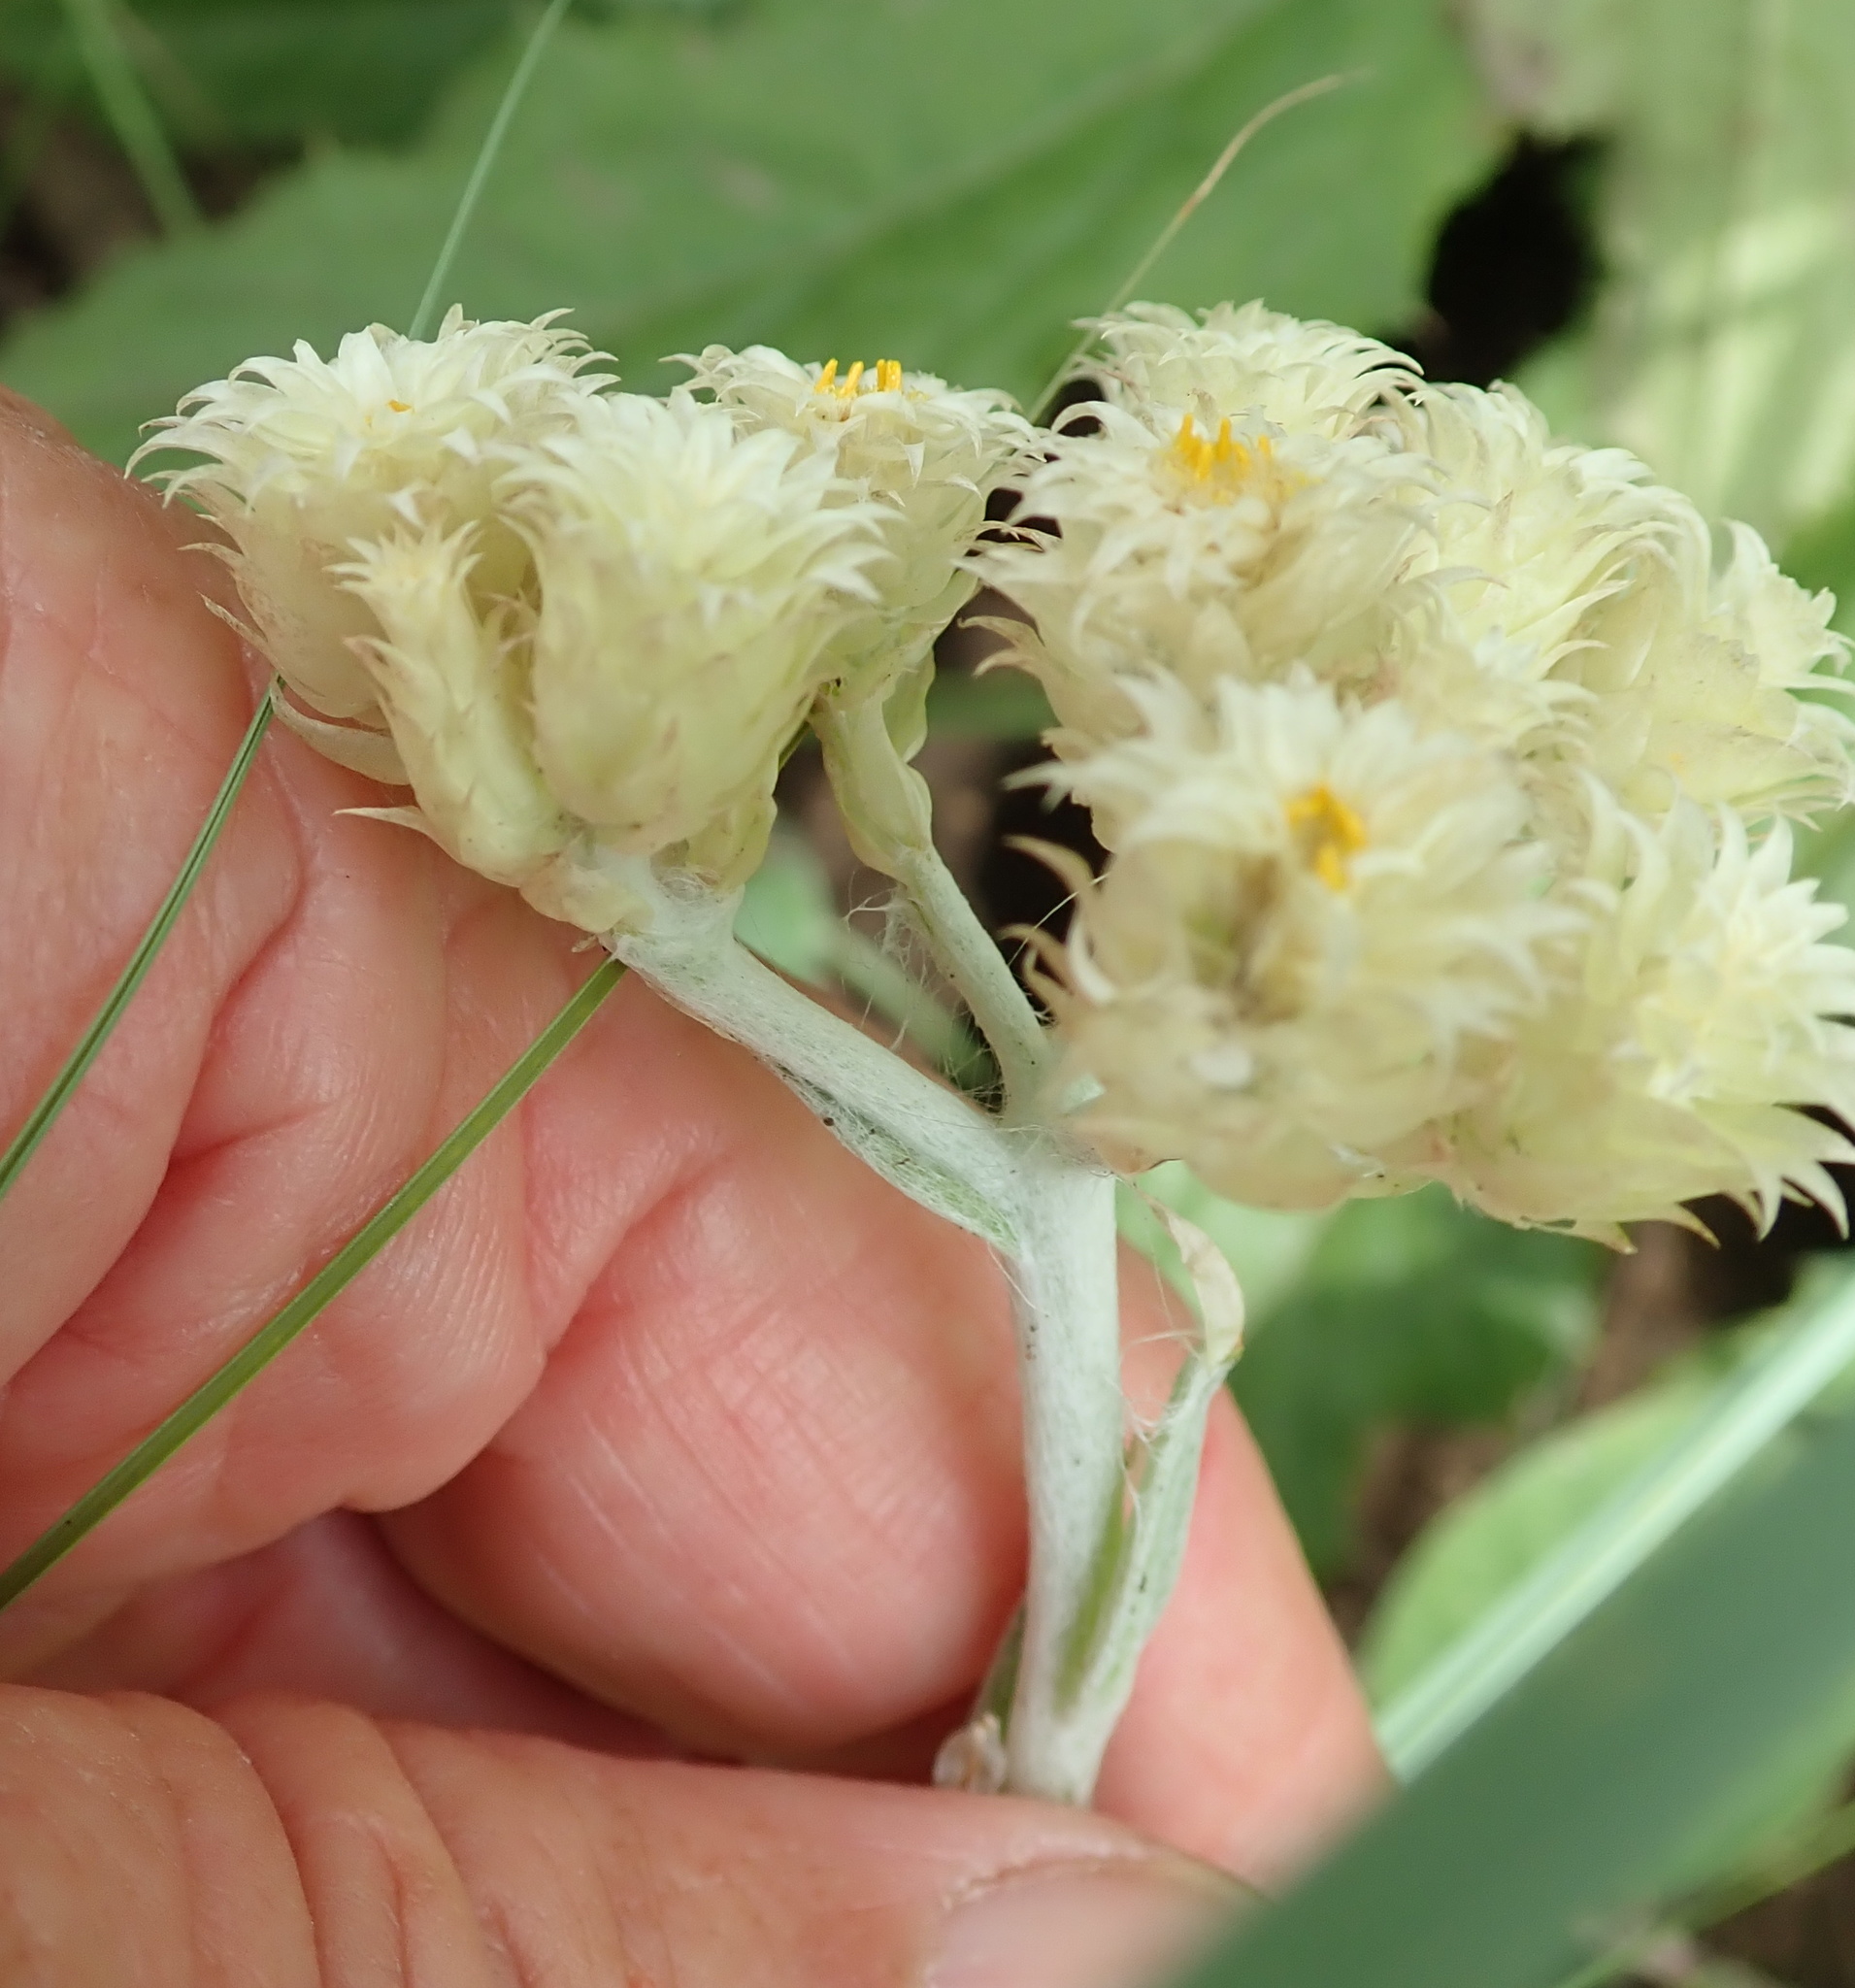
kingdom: Plantae
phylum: Tracheophyta
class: Magnoliopsida
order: Asterales
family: Asteraceae
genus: Helichrysum
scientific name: Helichrysum appendiculatum
